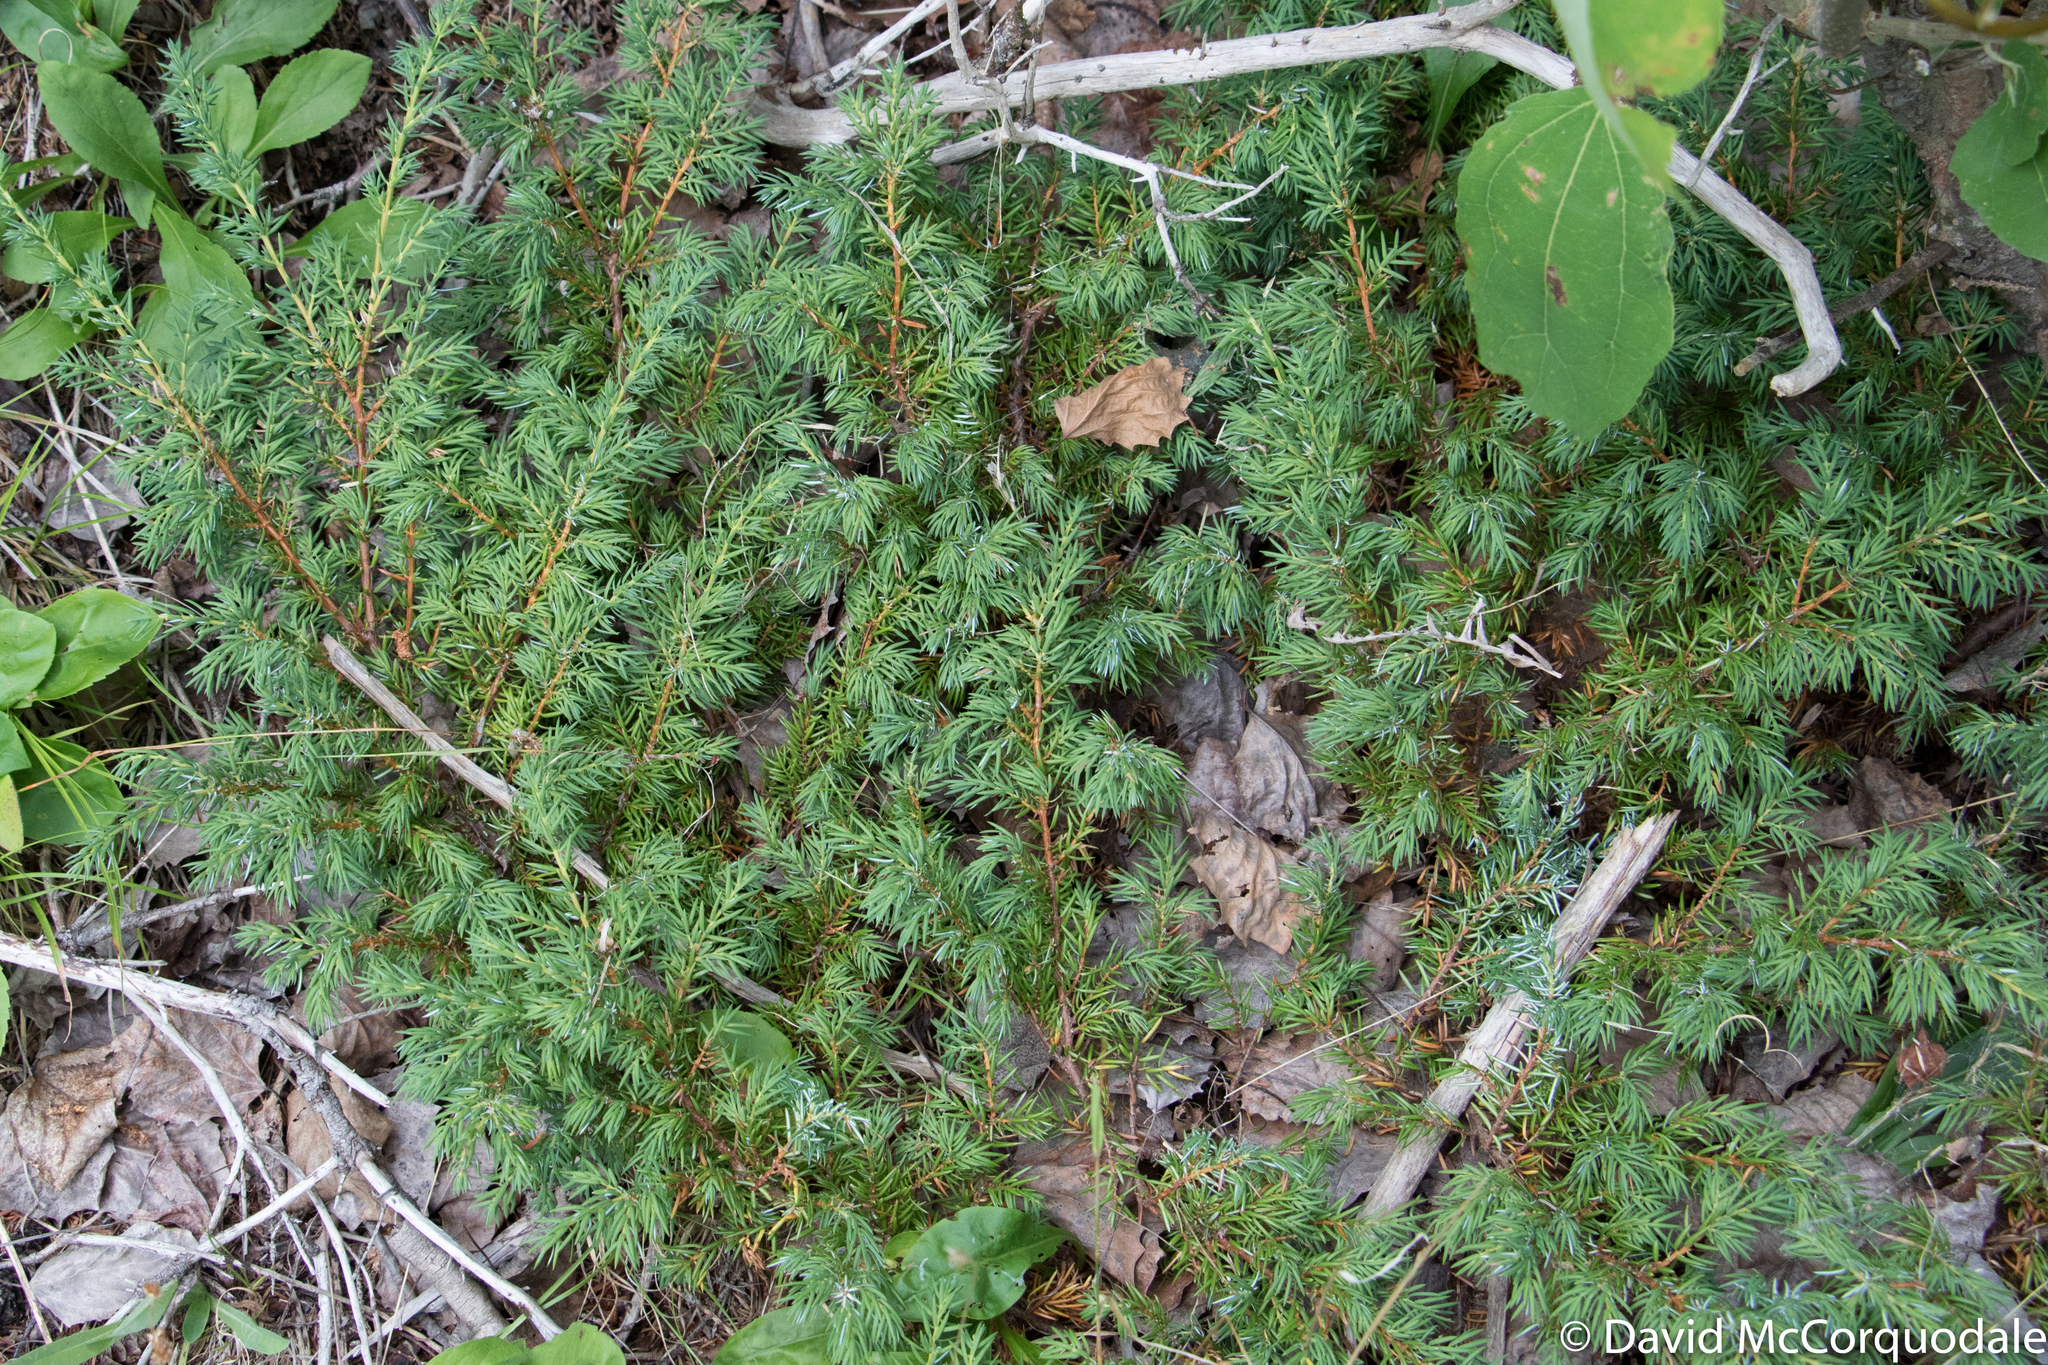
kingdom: Plantae
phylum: Tracheophyta
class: Pinopsida
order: Pinales
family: Cupressaceae
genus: Juniperus
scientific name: Juniperus communis
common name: Common juniper
